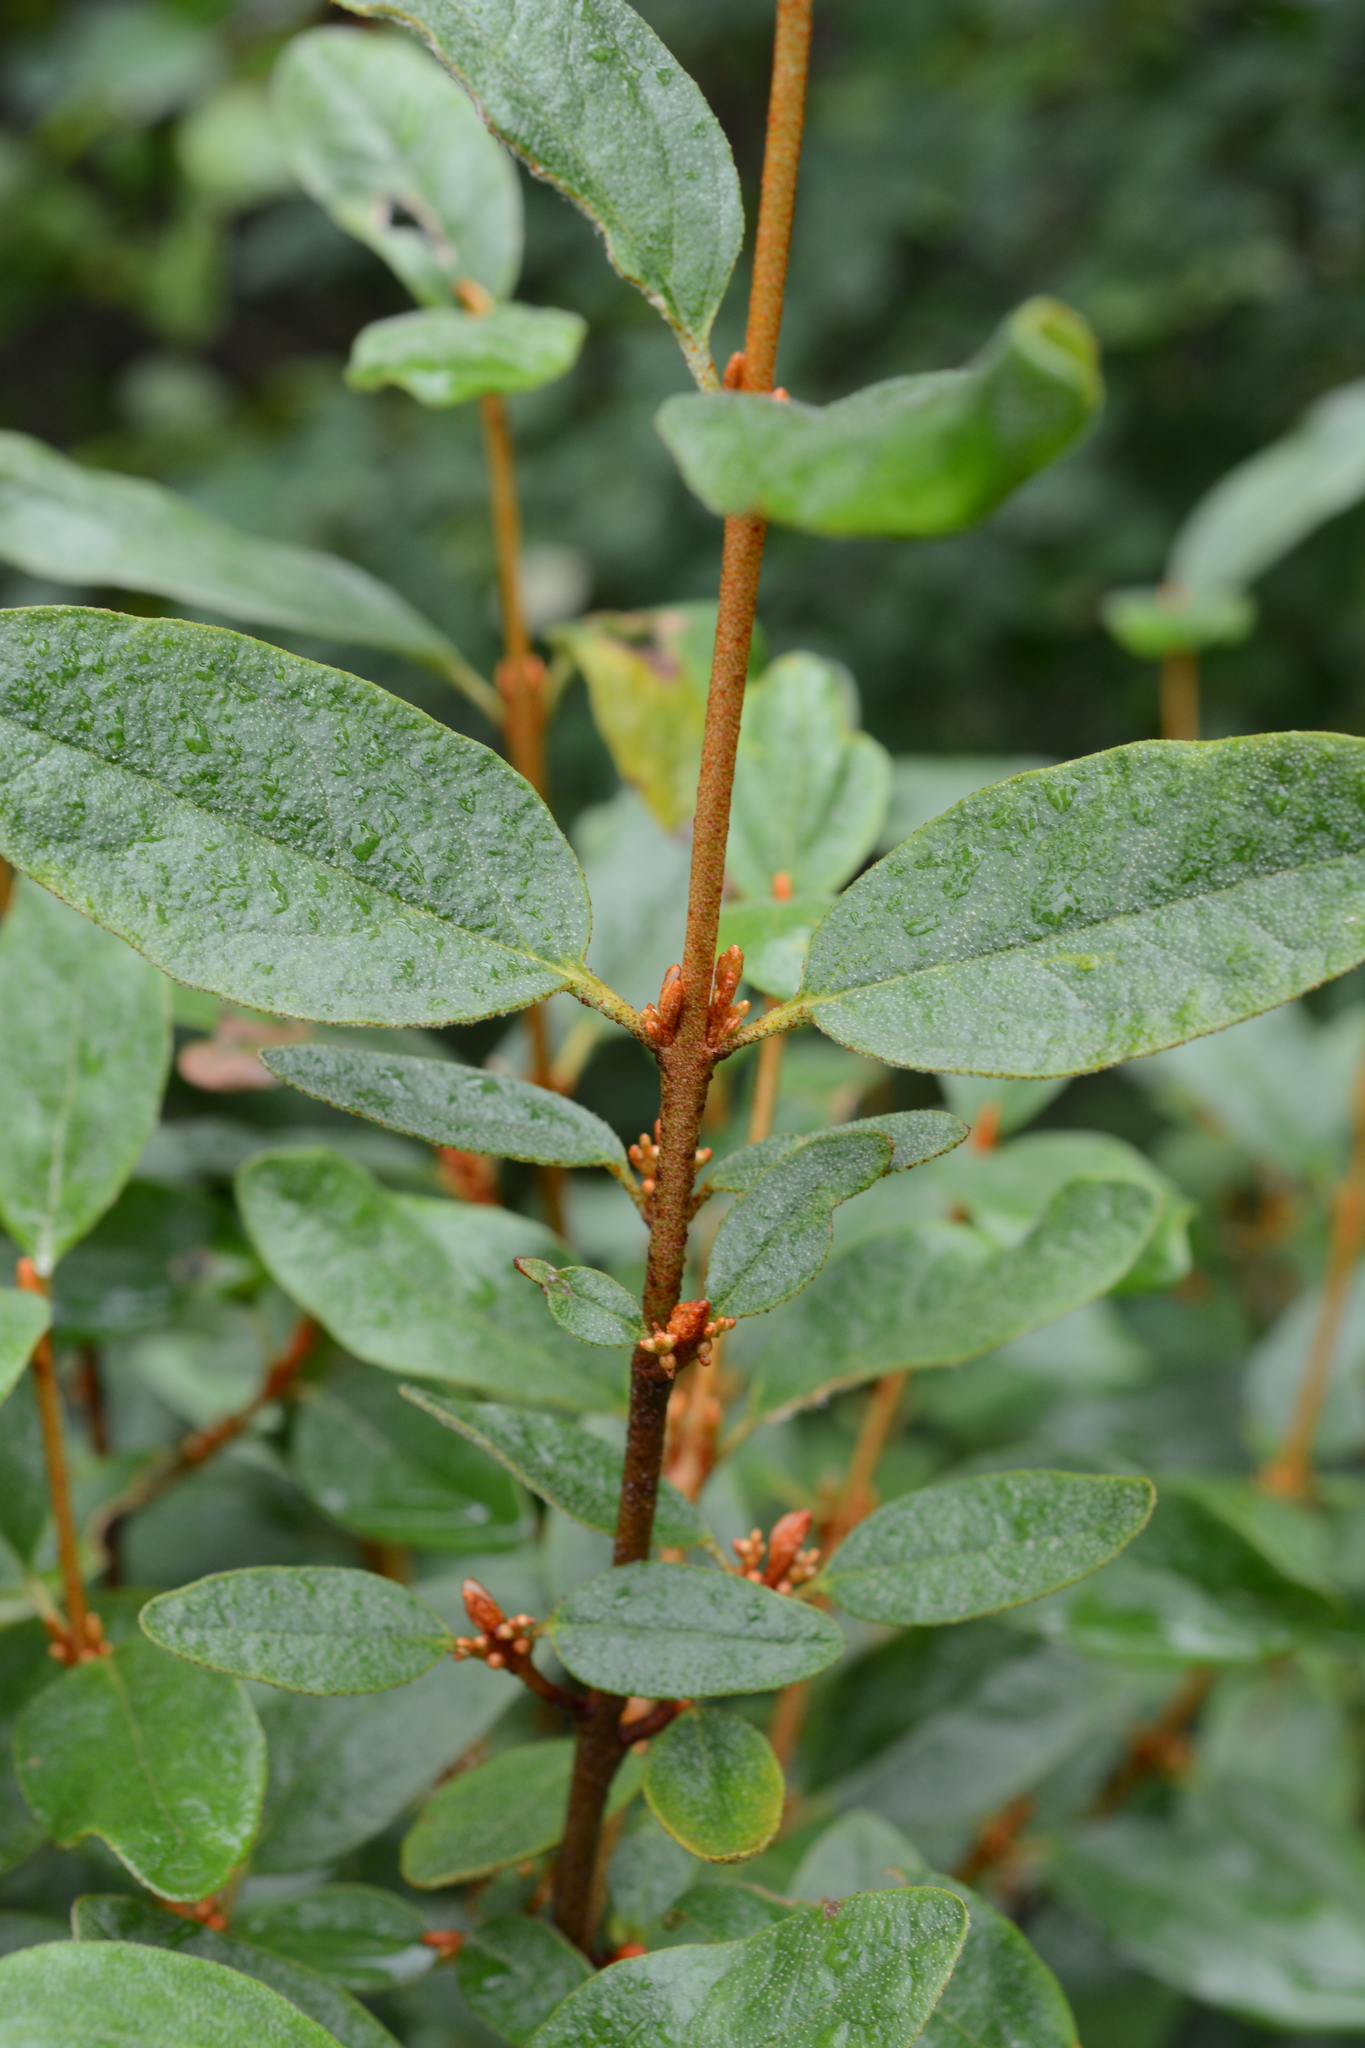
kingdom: Plantae
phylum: Tracheophyta
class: Magnoliopsida
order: Rosales
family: Elaeagnaceae
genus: Shepherdia
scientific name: Shepherdia canadensis
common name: Soapberry
